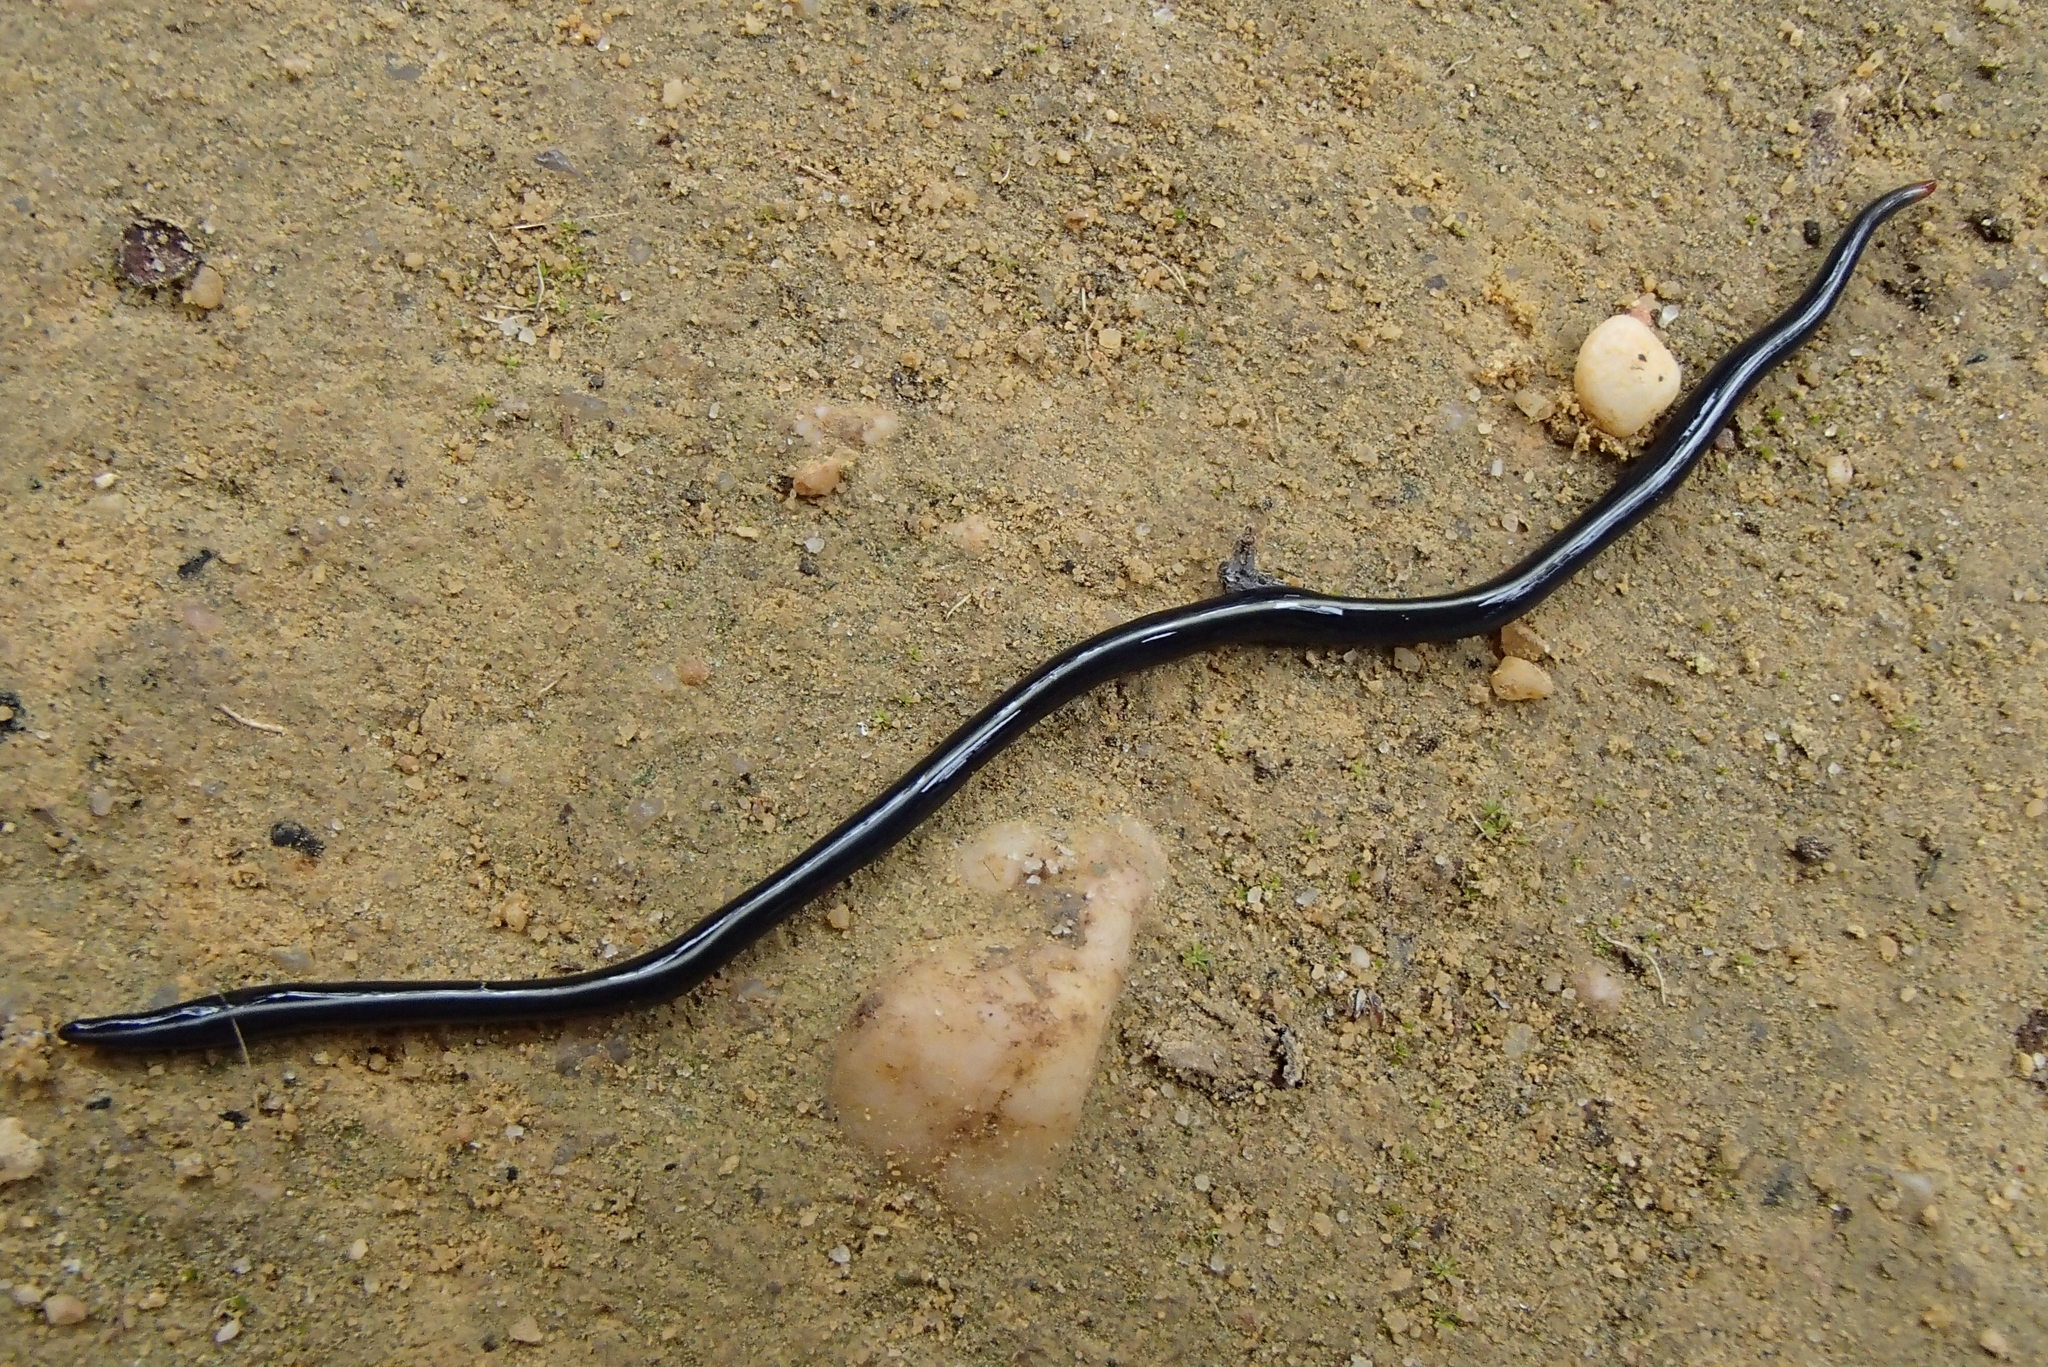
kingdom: Animalia
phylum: Platyhelminthes
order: Tricladida
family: Geoplanidae
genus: Caenoplana
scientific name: Caenoplana coerulea
